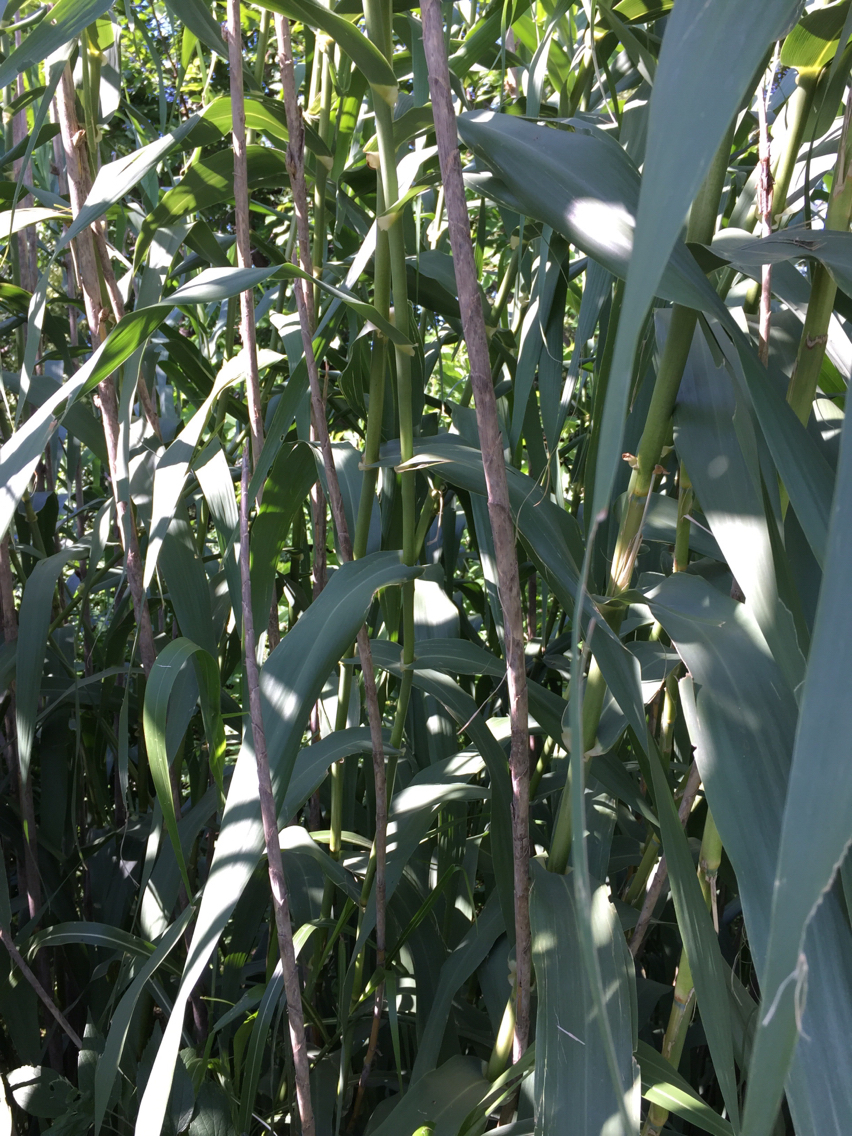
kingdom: Plantae
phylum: Tracheophyta
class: Liliopsida
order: Poales
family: Poaceae
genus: Arundo
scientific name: Arundo donax
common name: Giant reed
